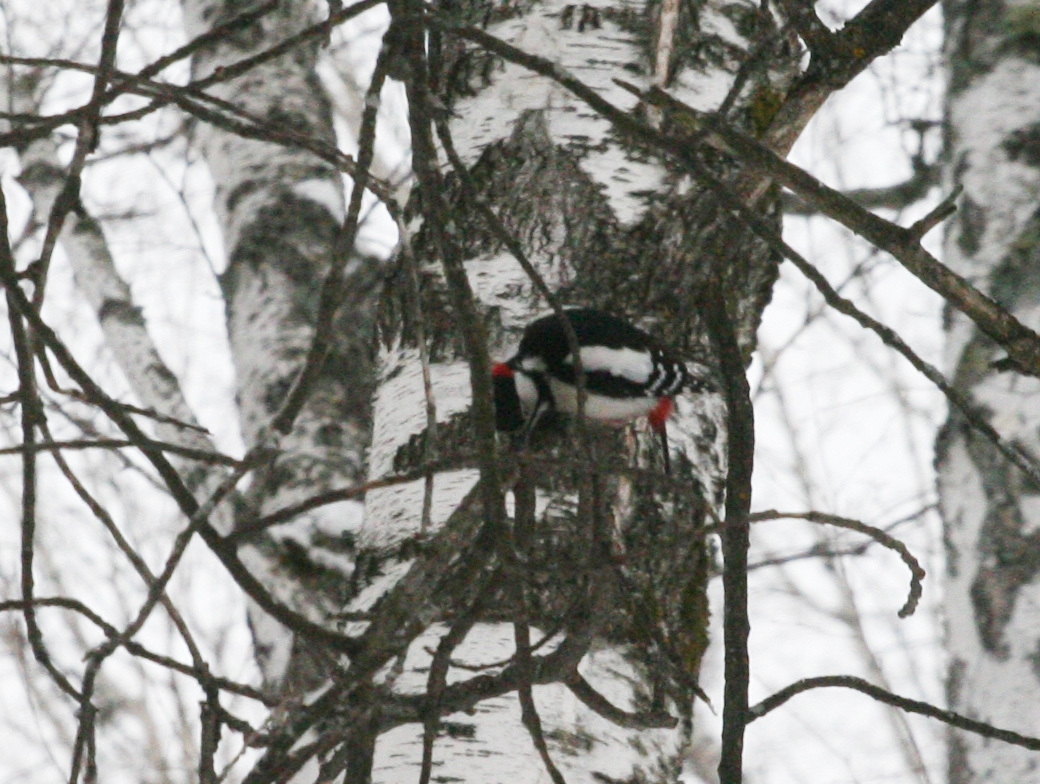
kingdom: Animalia
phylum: Chordata
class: Aves
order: Piciformes
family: Picidae
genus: Dendrocopos
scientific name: Dendrocopos major
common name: Great spotted woodpecker
